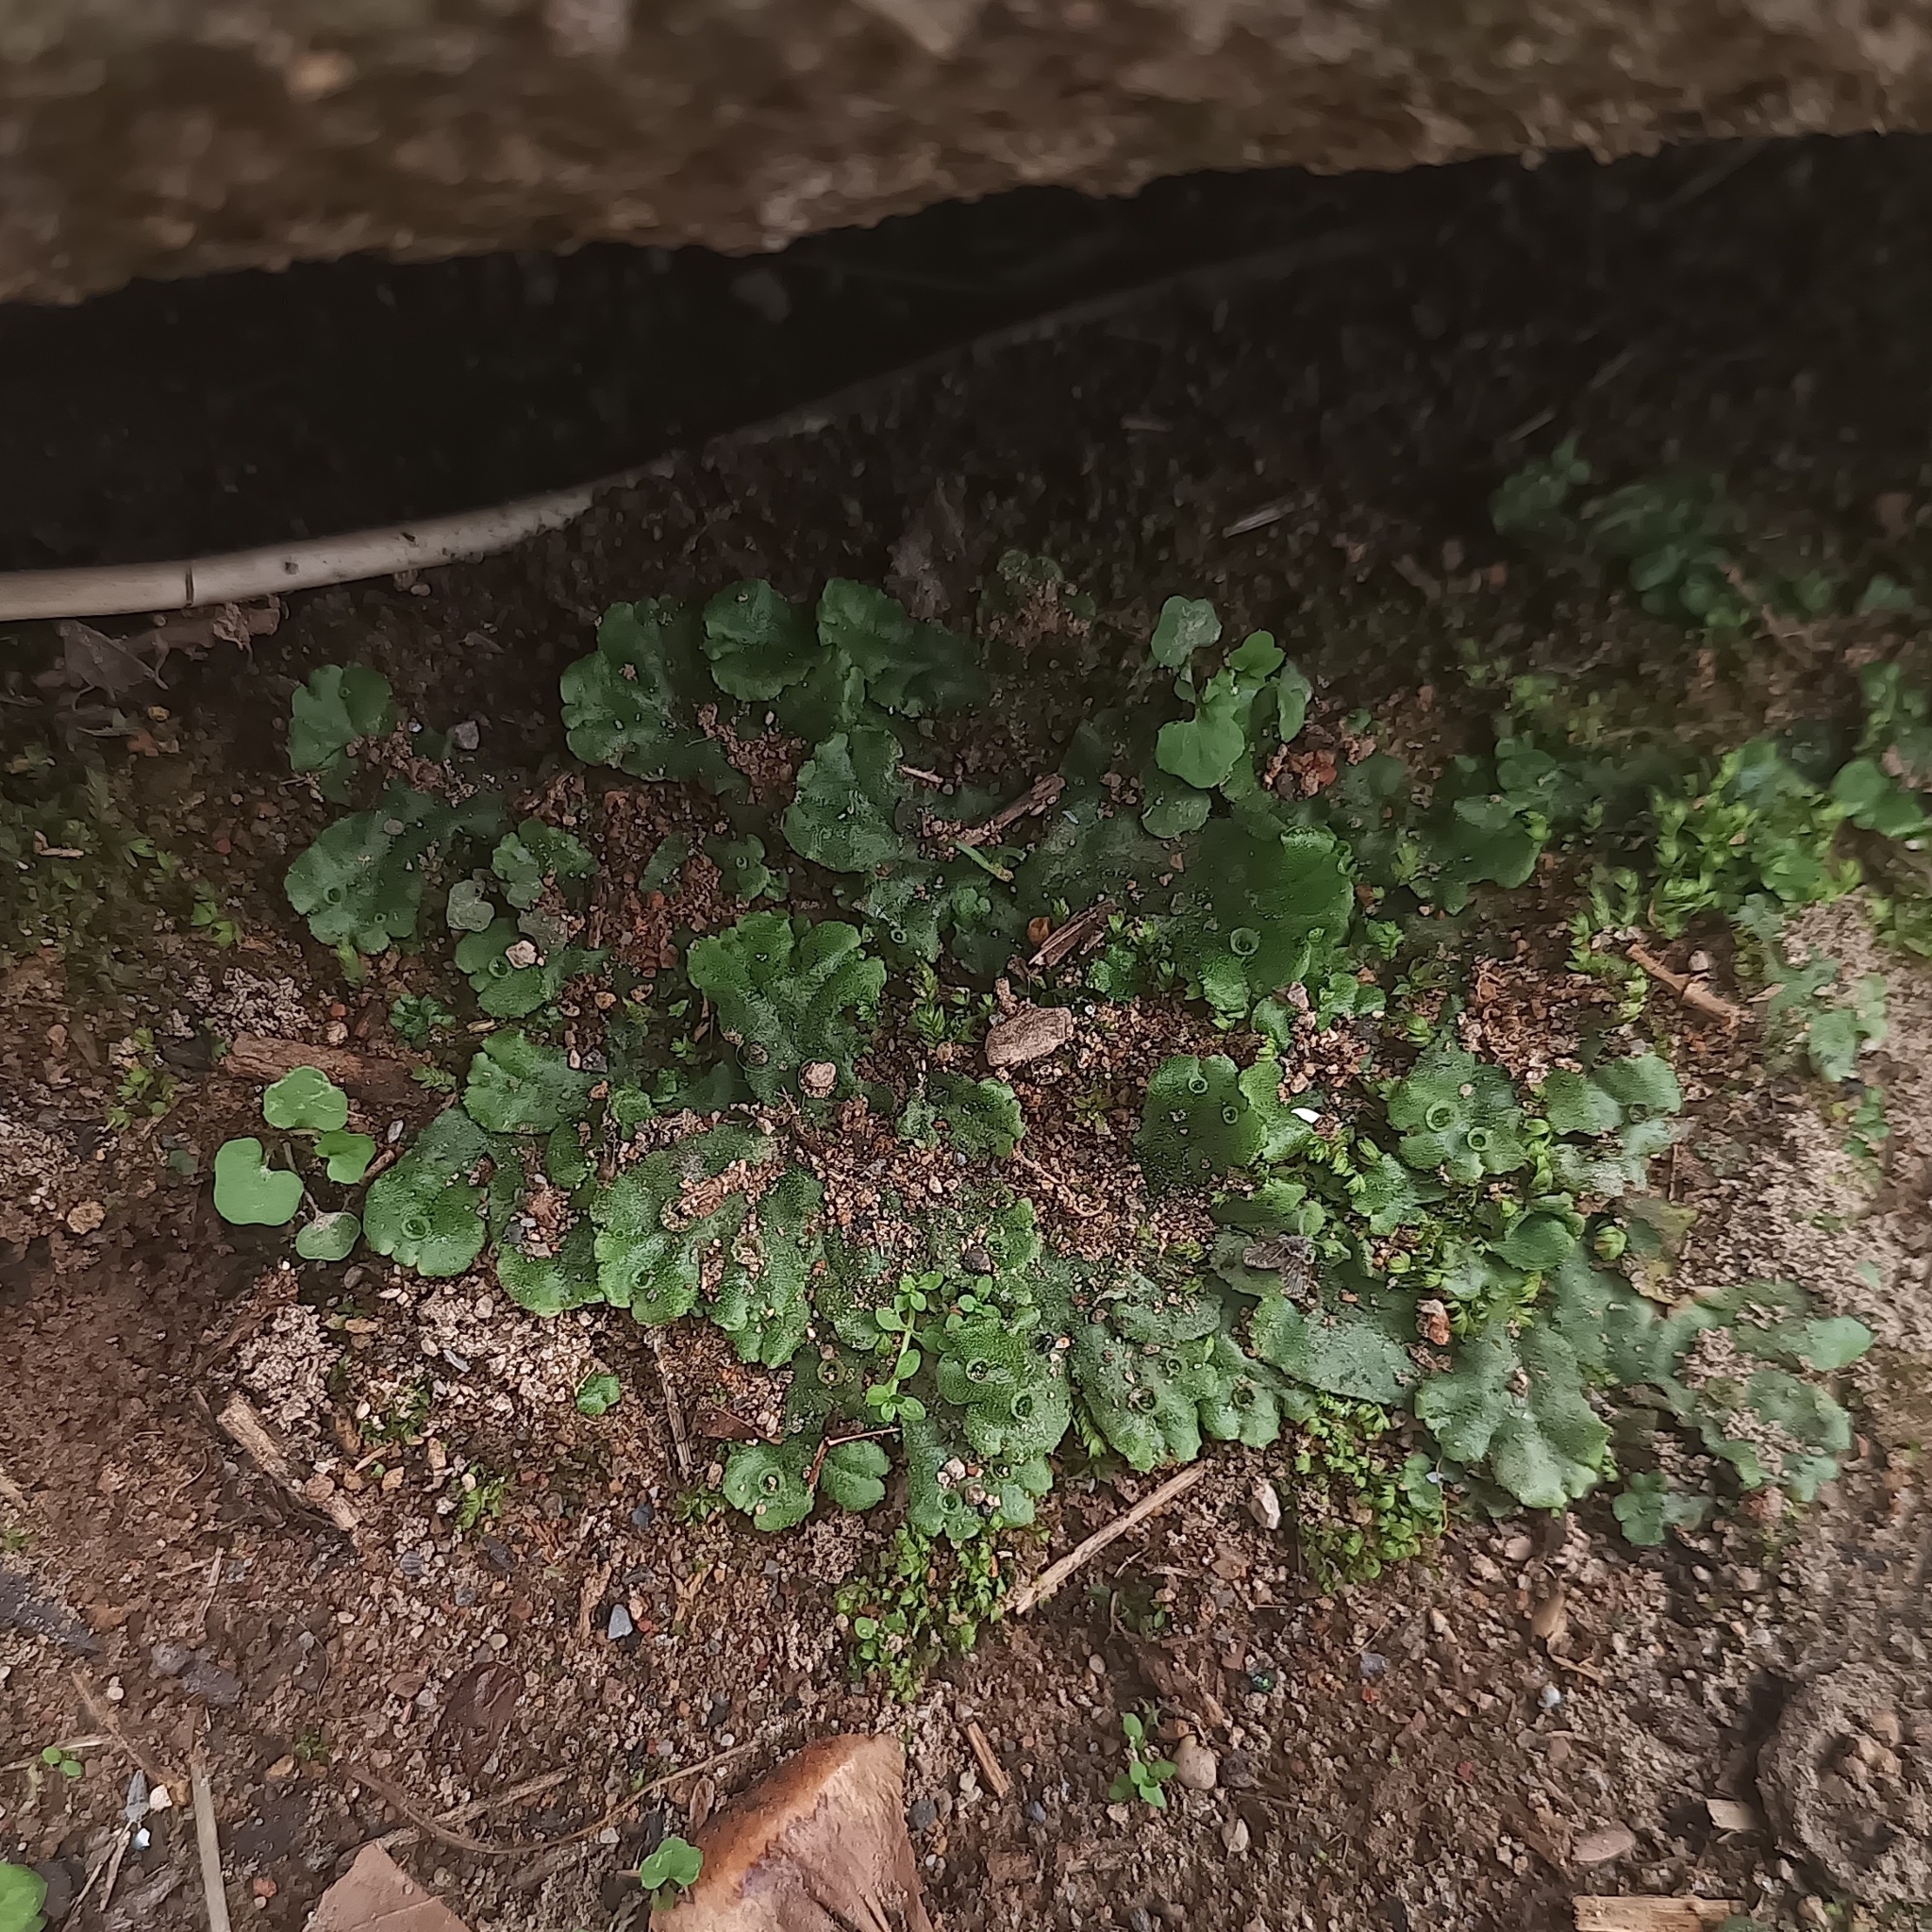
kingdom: Plantae
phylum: Marchantiophyta
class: Marchantiopsida
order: Marchantiales
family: Marchantiaceae
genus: Marchantia
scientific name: Marchantia polymorpha
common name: Common liverwort
